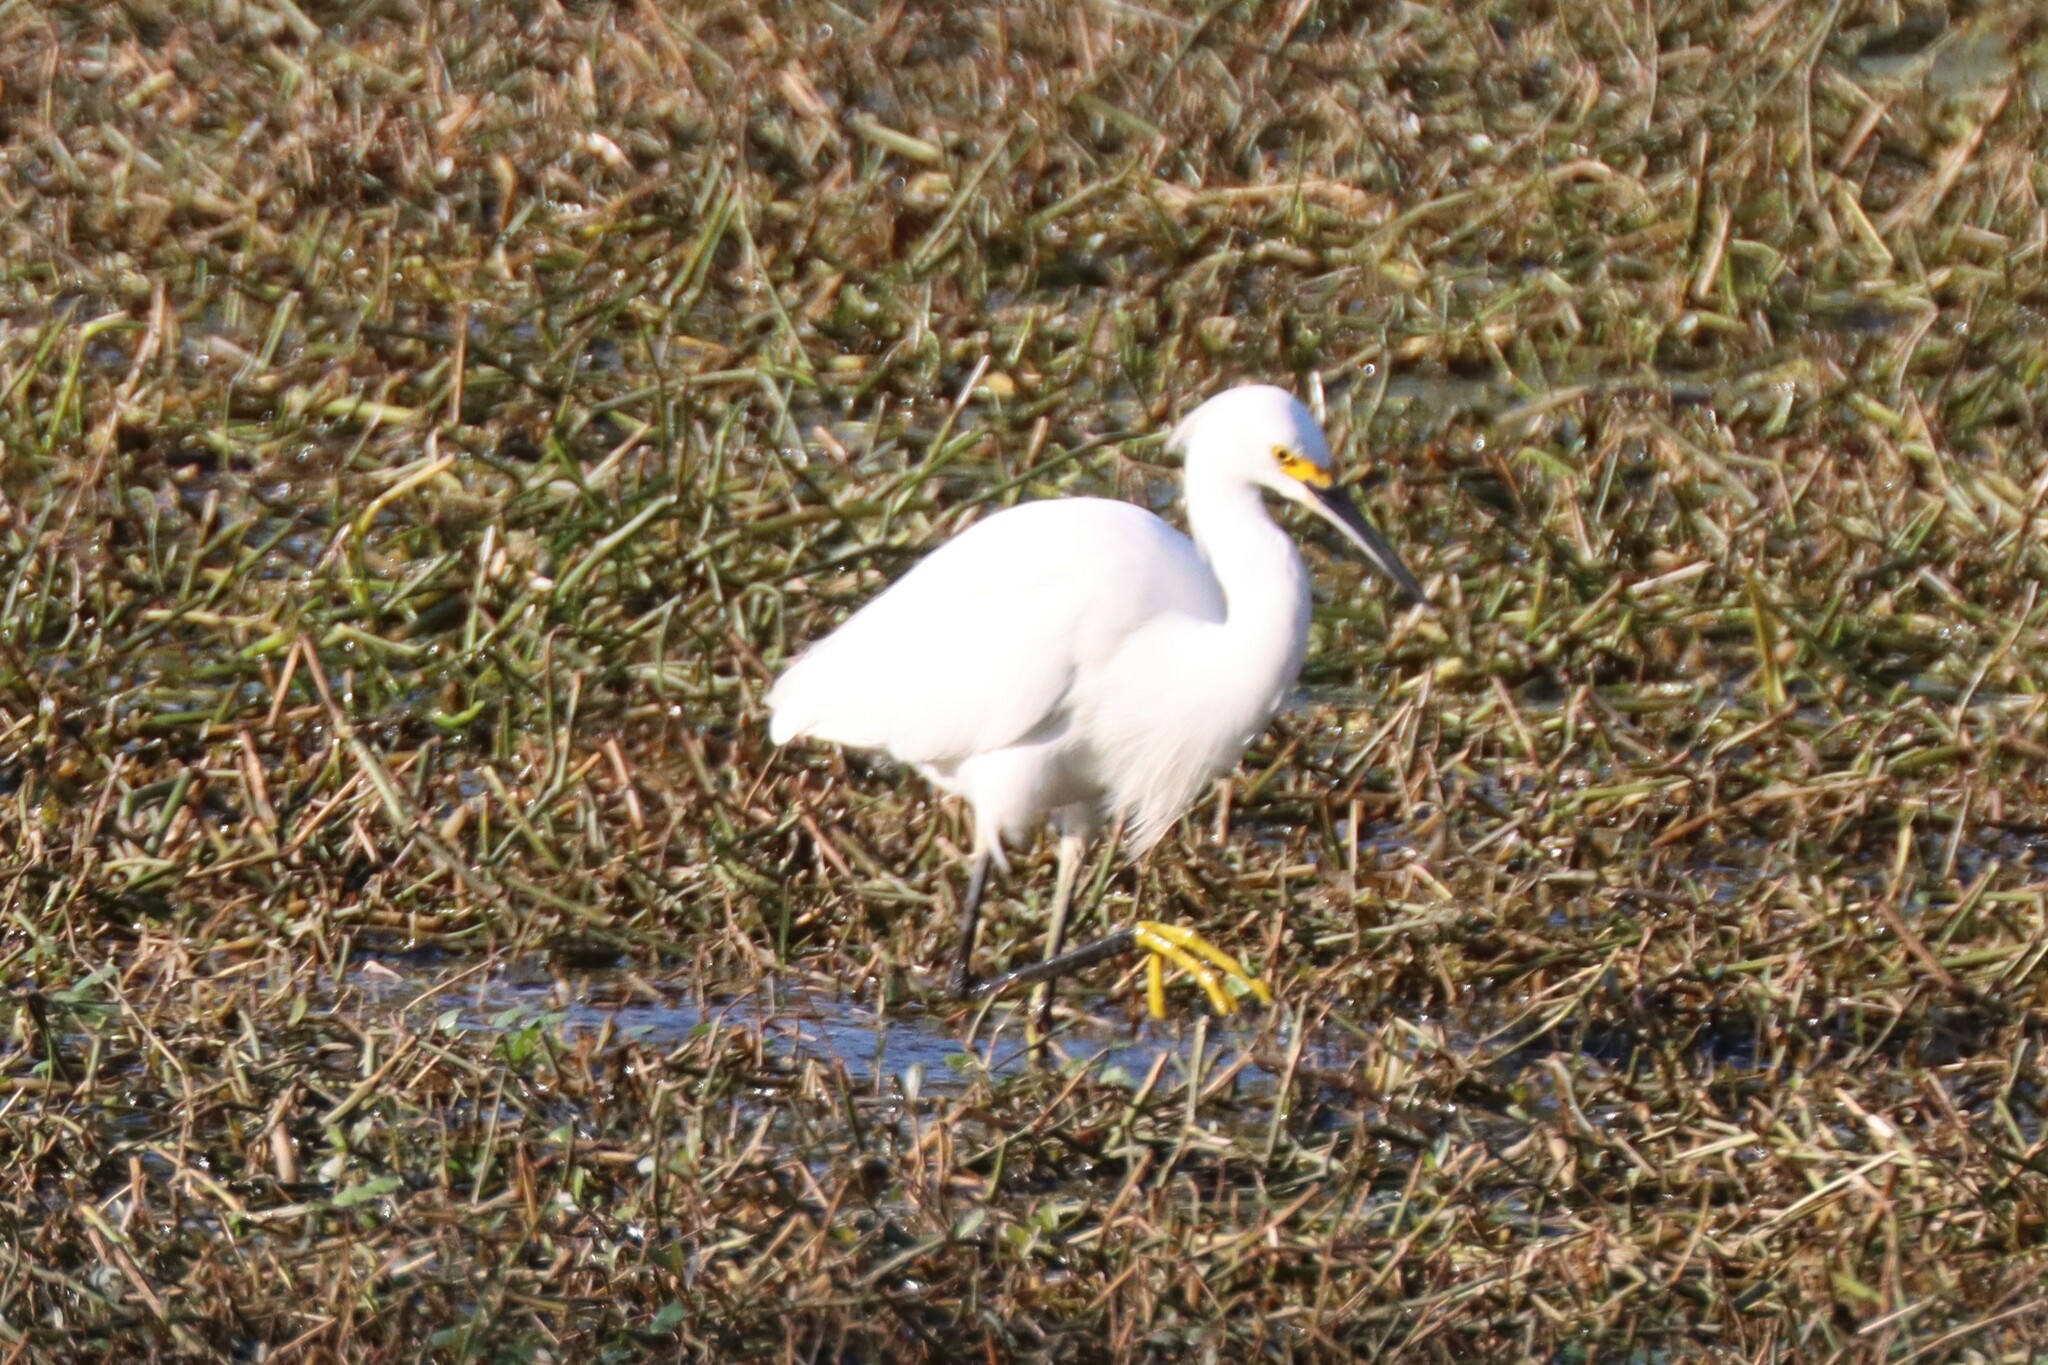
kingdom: Animalia
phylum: Chordata
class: Aves
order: Pelecaniformes
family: Ardeidae
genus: Egretta
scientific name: Egretta thula
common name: Snowy egret
